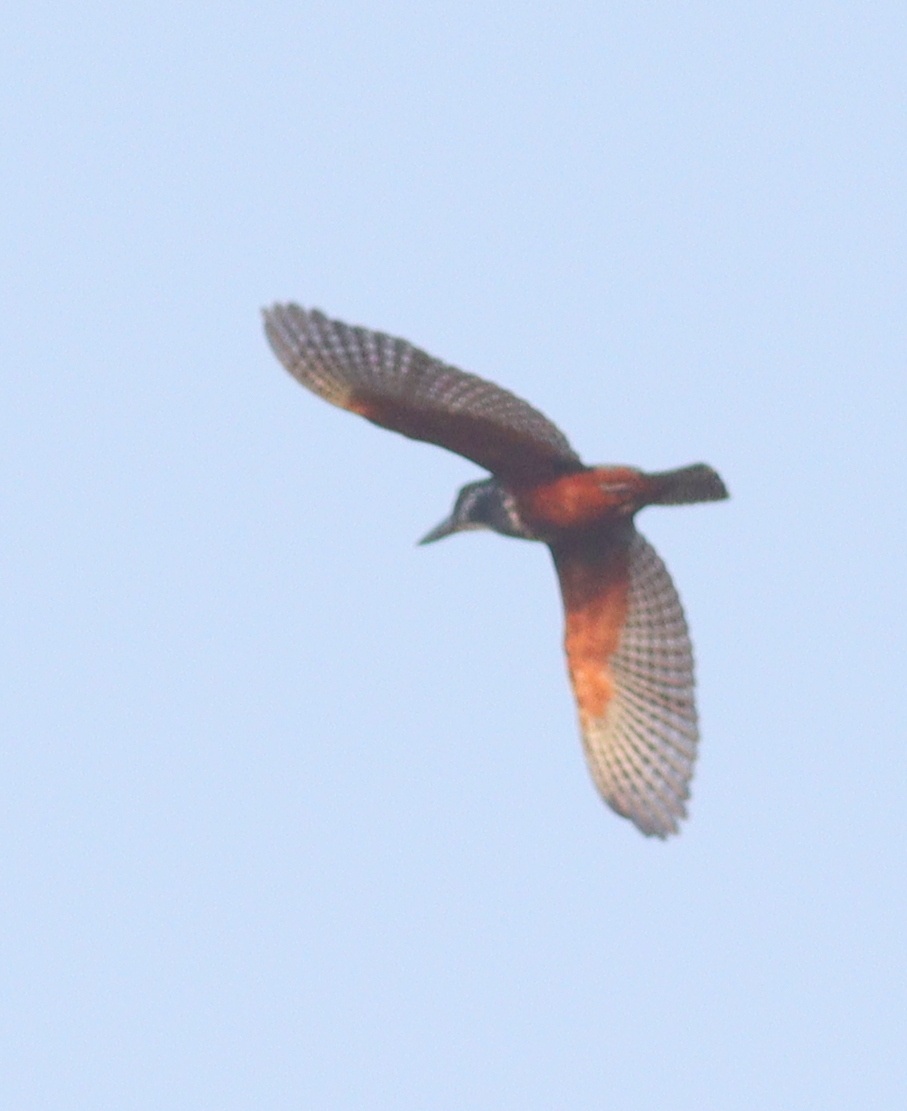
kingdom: Animalia
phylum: Chordata
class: Aves
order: Coraciiformes
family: Alcedinidae
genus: Megaceryle
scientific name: Megaceryle maxima
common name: Giant kingfisher
